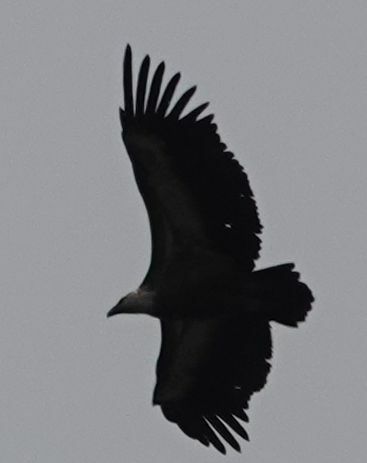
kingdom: Animalia
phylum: Chordata
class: Aves
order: Accipitriformes
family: Accipitridae
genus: Gyps
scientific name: Gyps fulvus
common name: Griffon vulture
